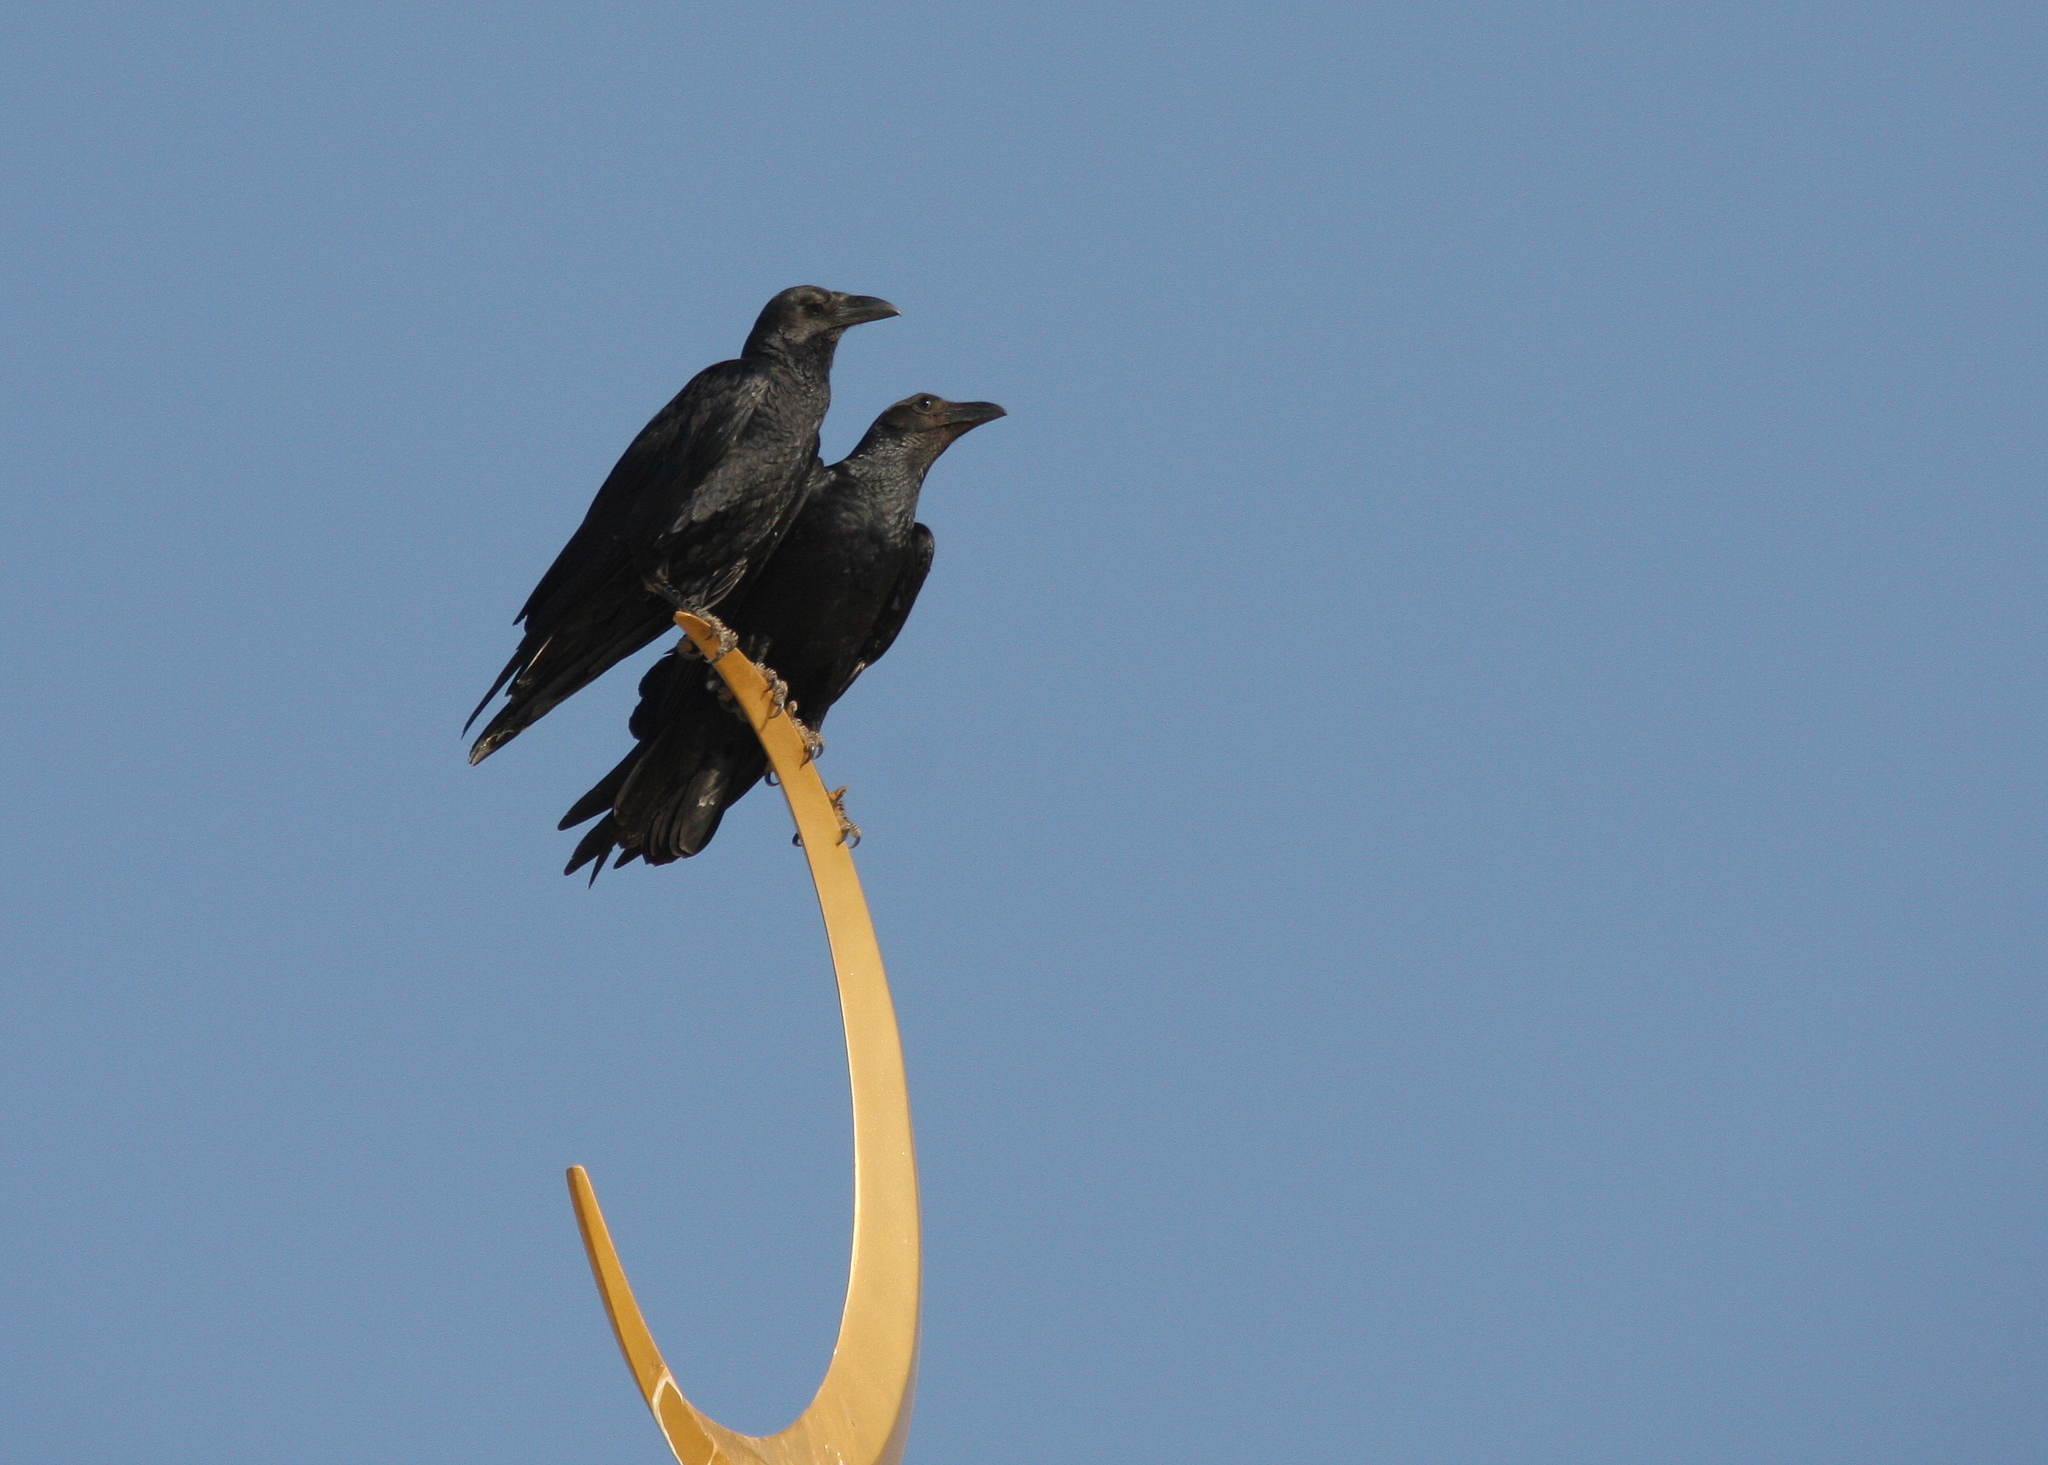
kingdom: Animalia
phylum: Chordata
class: Aves
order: Passeriformes
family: Corvidae
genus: Corvus
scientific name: Corvus rhipidurus
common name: Fan-tailed raven
